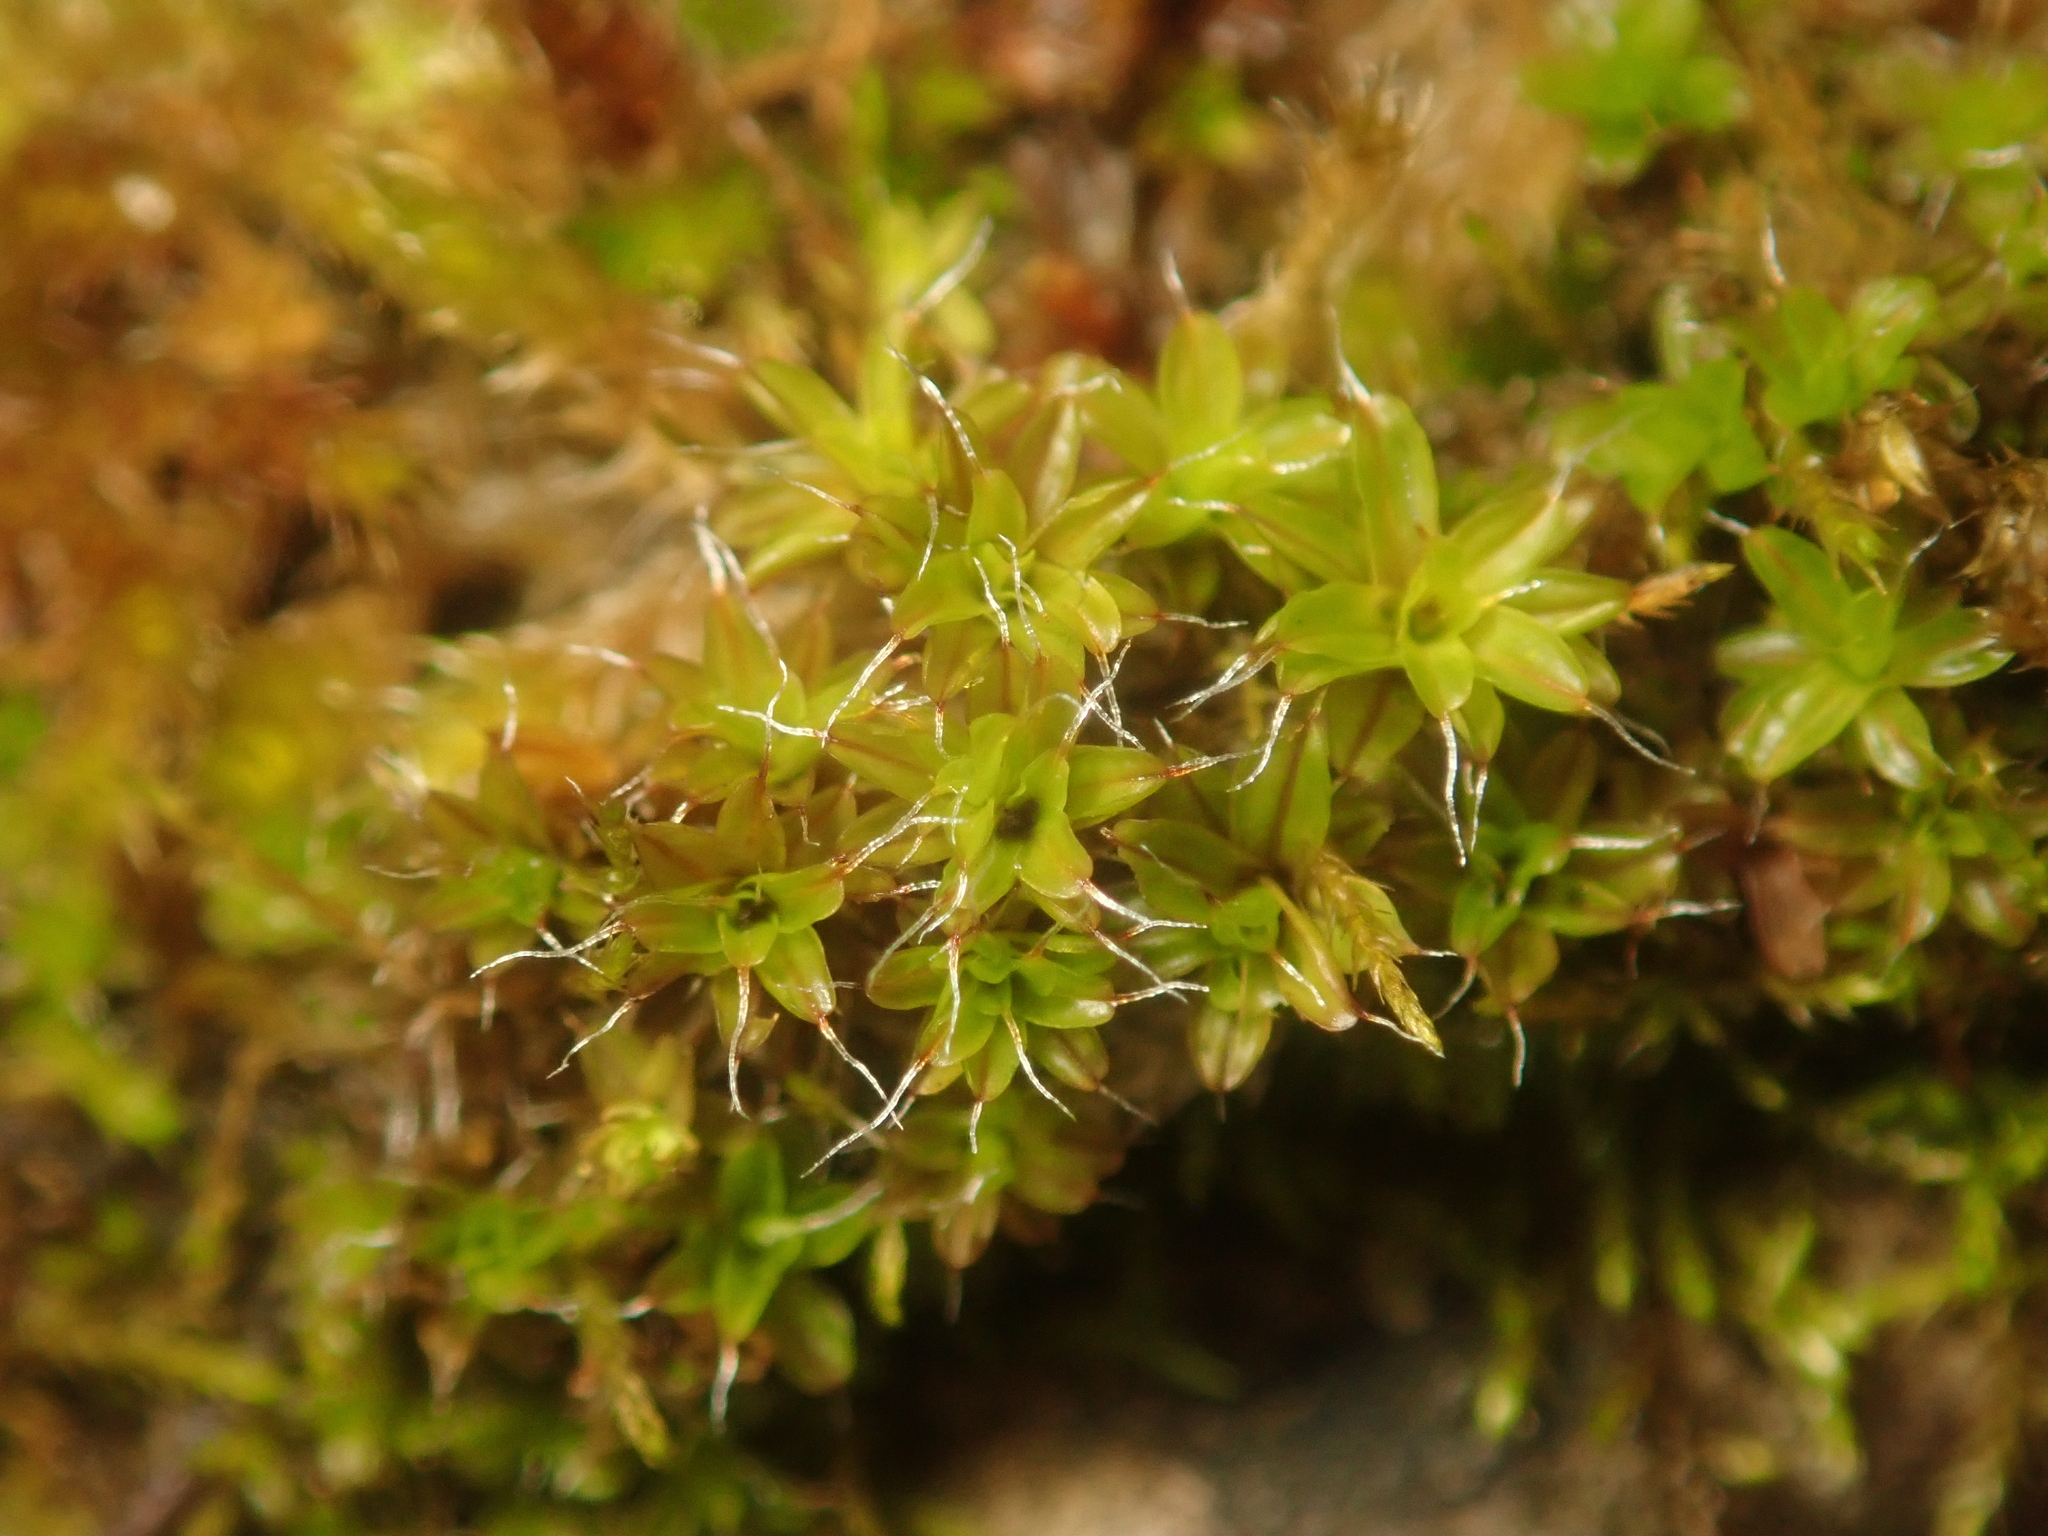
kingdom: Plantae
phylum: Bryophyta
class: Bryopsida
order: Pottiales
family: Pottiaceae
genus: Syntrichia
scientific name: Syntrichia ruralis
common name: Sidewalk screw moss
